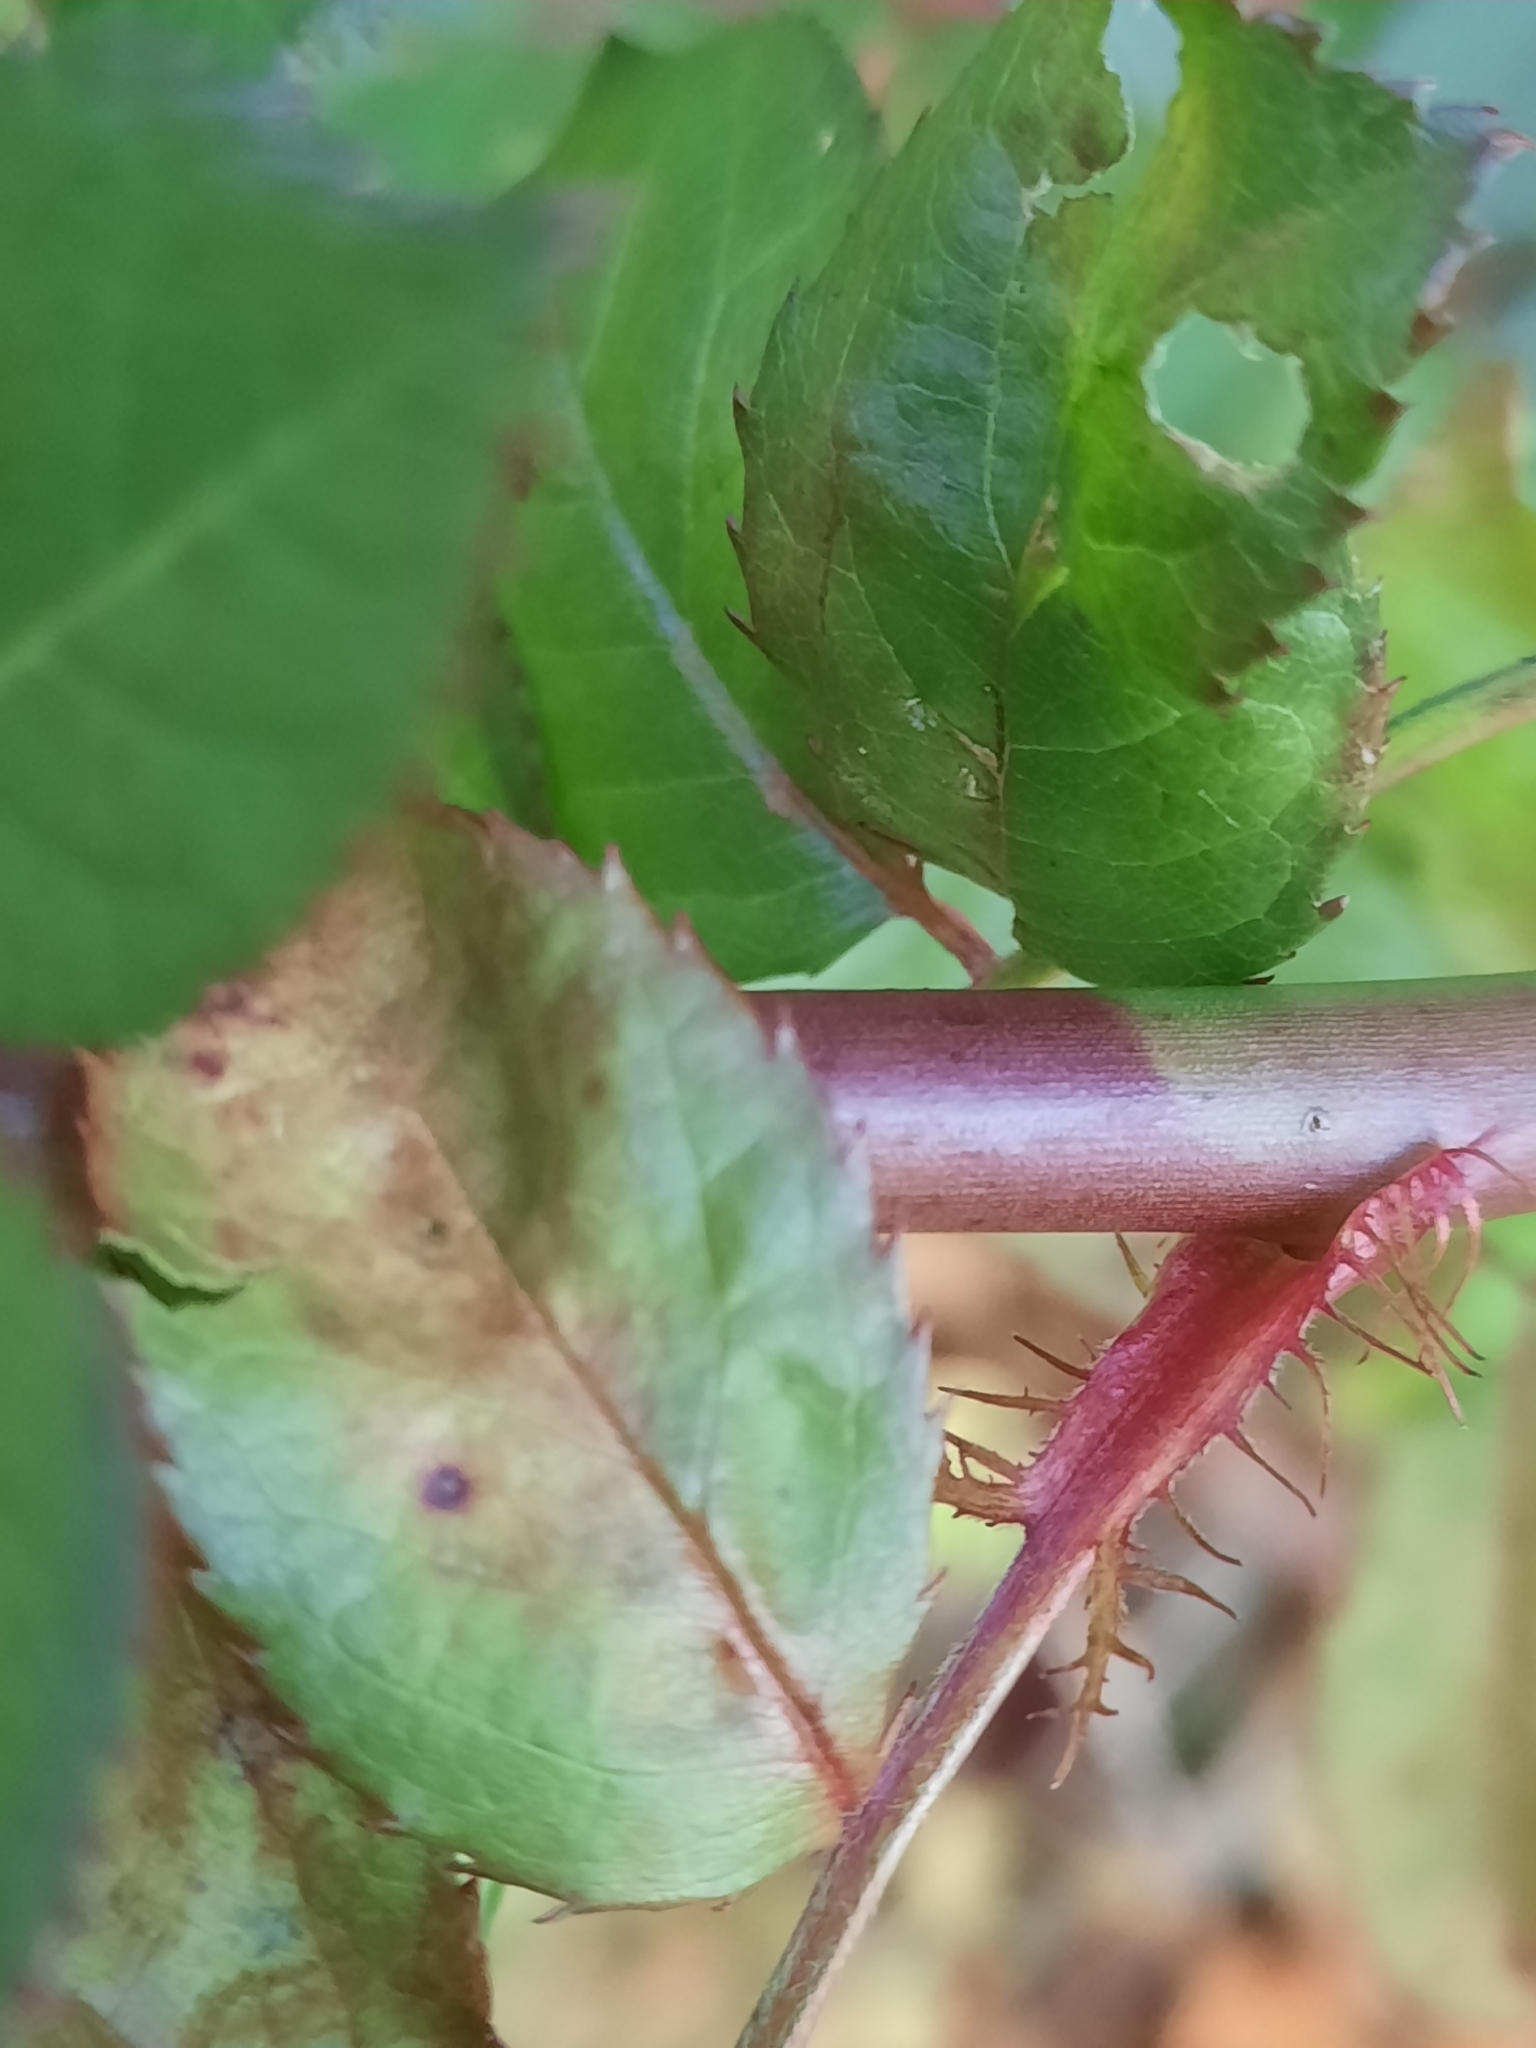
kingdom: Plantae
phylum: Tracheophyta
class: Magnoliopsida
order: Rosales
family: Rosaceae
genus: Rosa
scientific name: Rosa multiflora
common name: Multiflora rose
